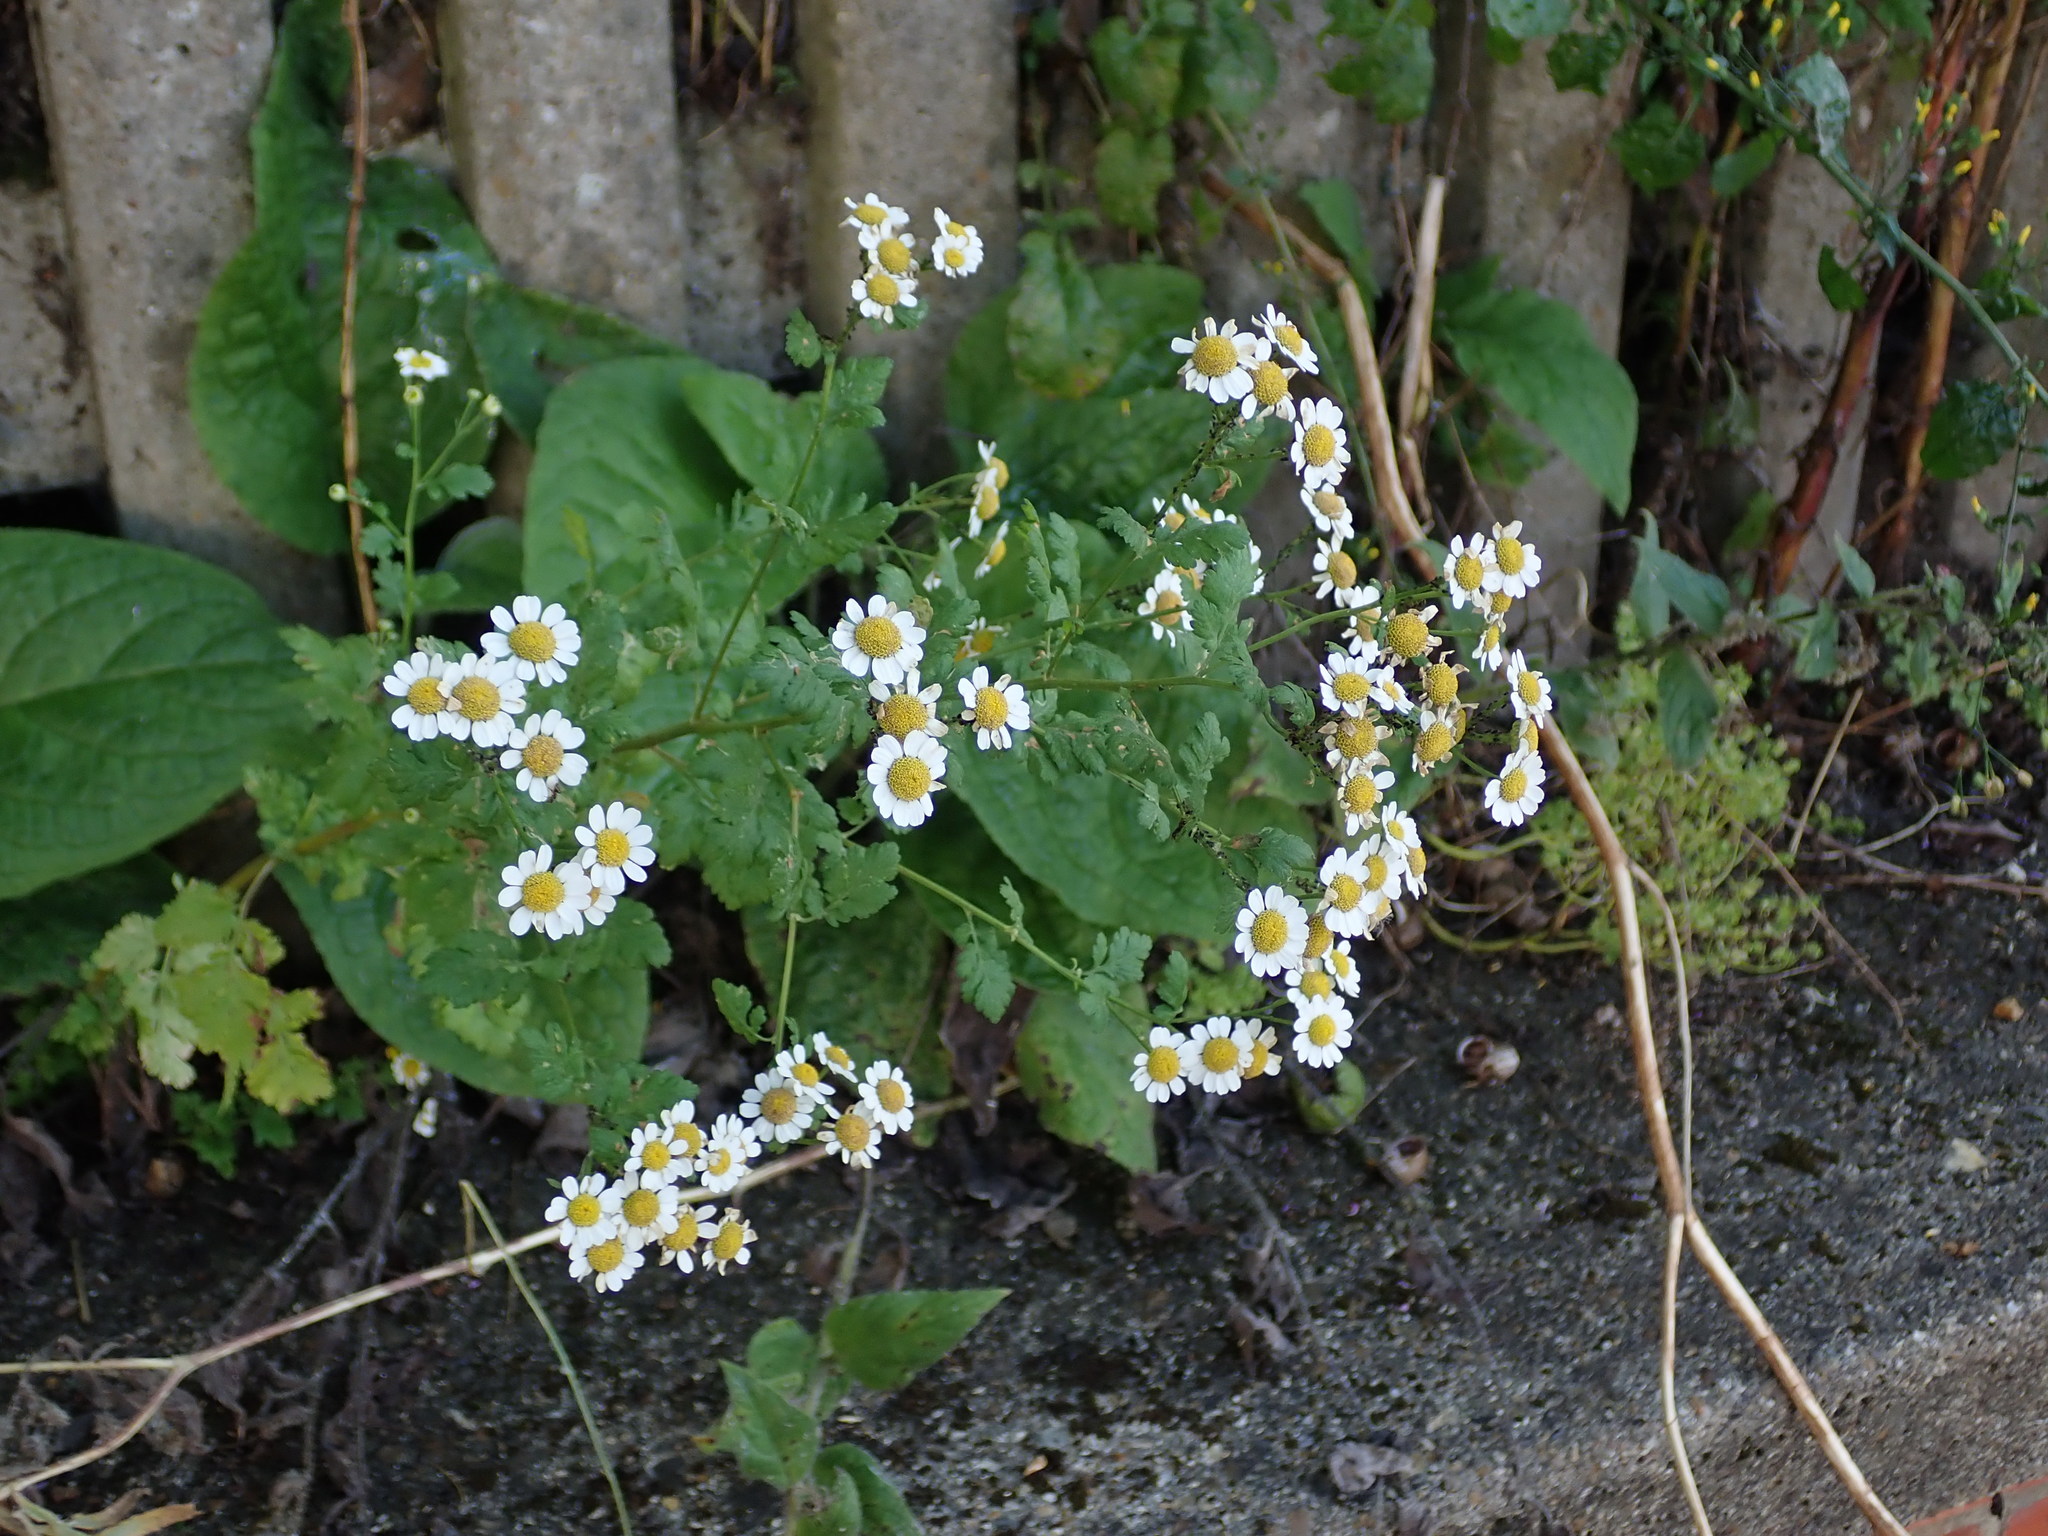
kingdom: Plantae
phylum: Tracheophyta
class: Magnoliopsida
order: Asterales
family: Asteraceae
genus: Tanacetum
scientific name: Tanacetum parthenium
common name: Feverfew
